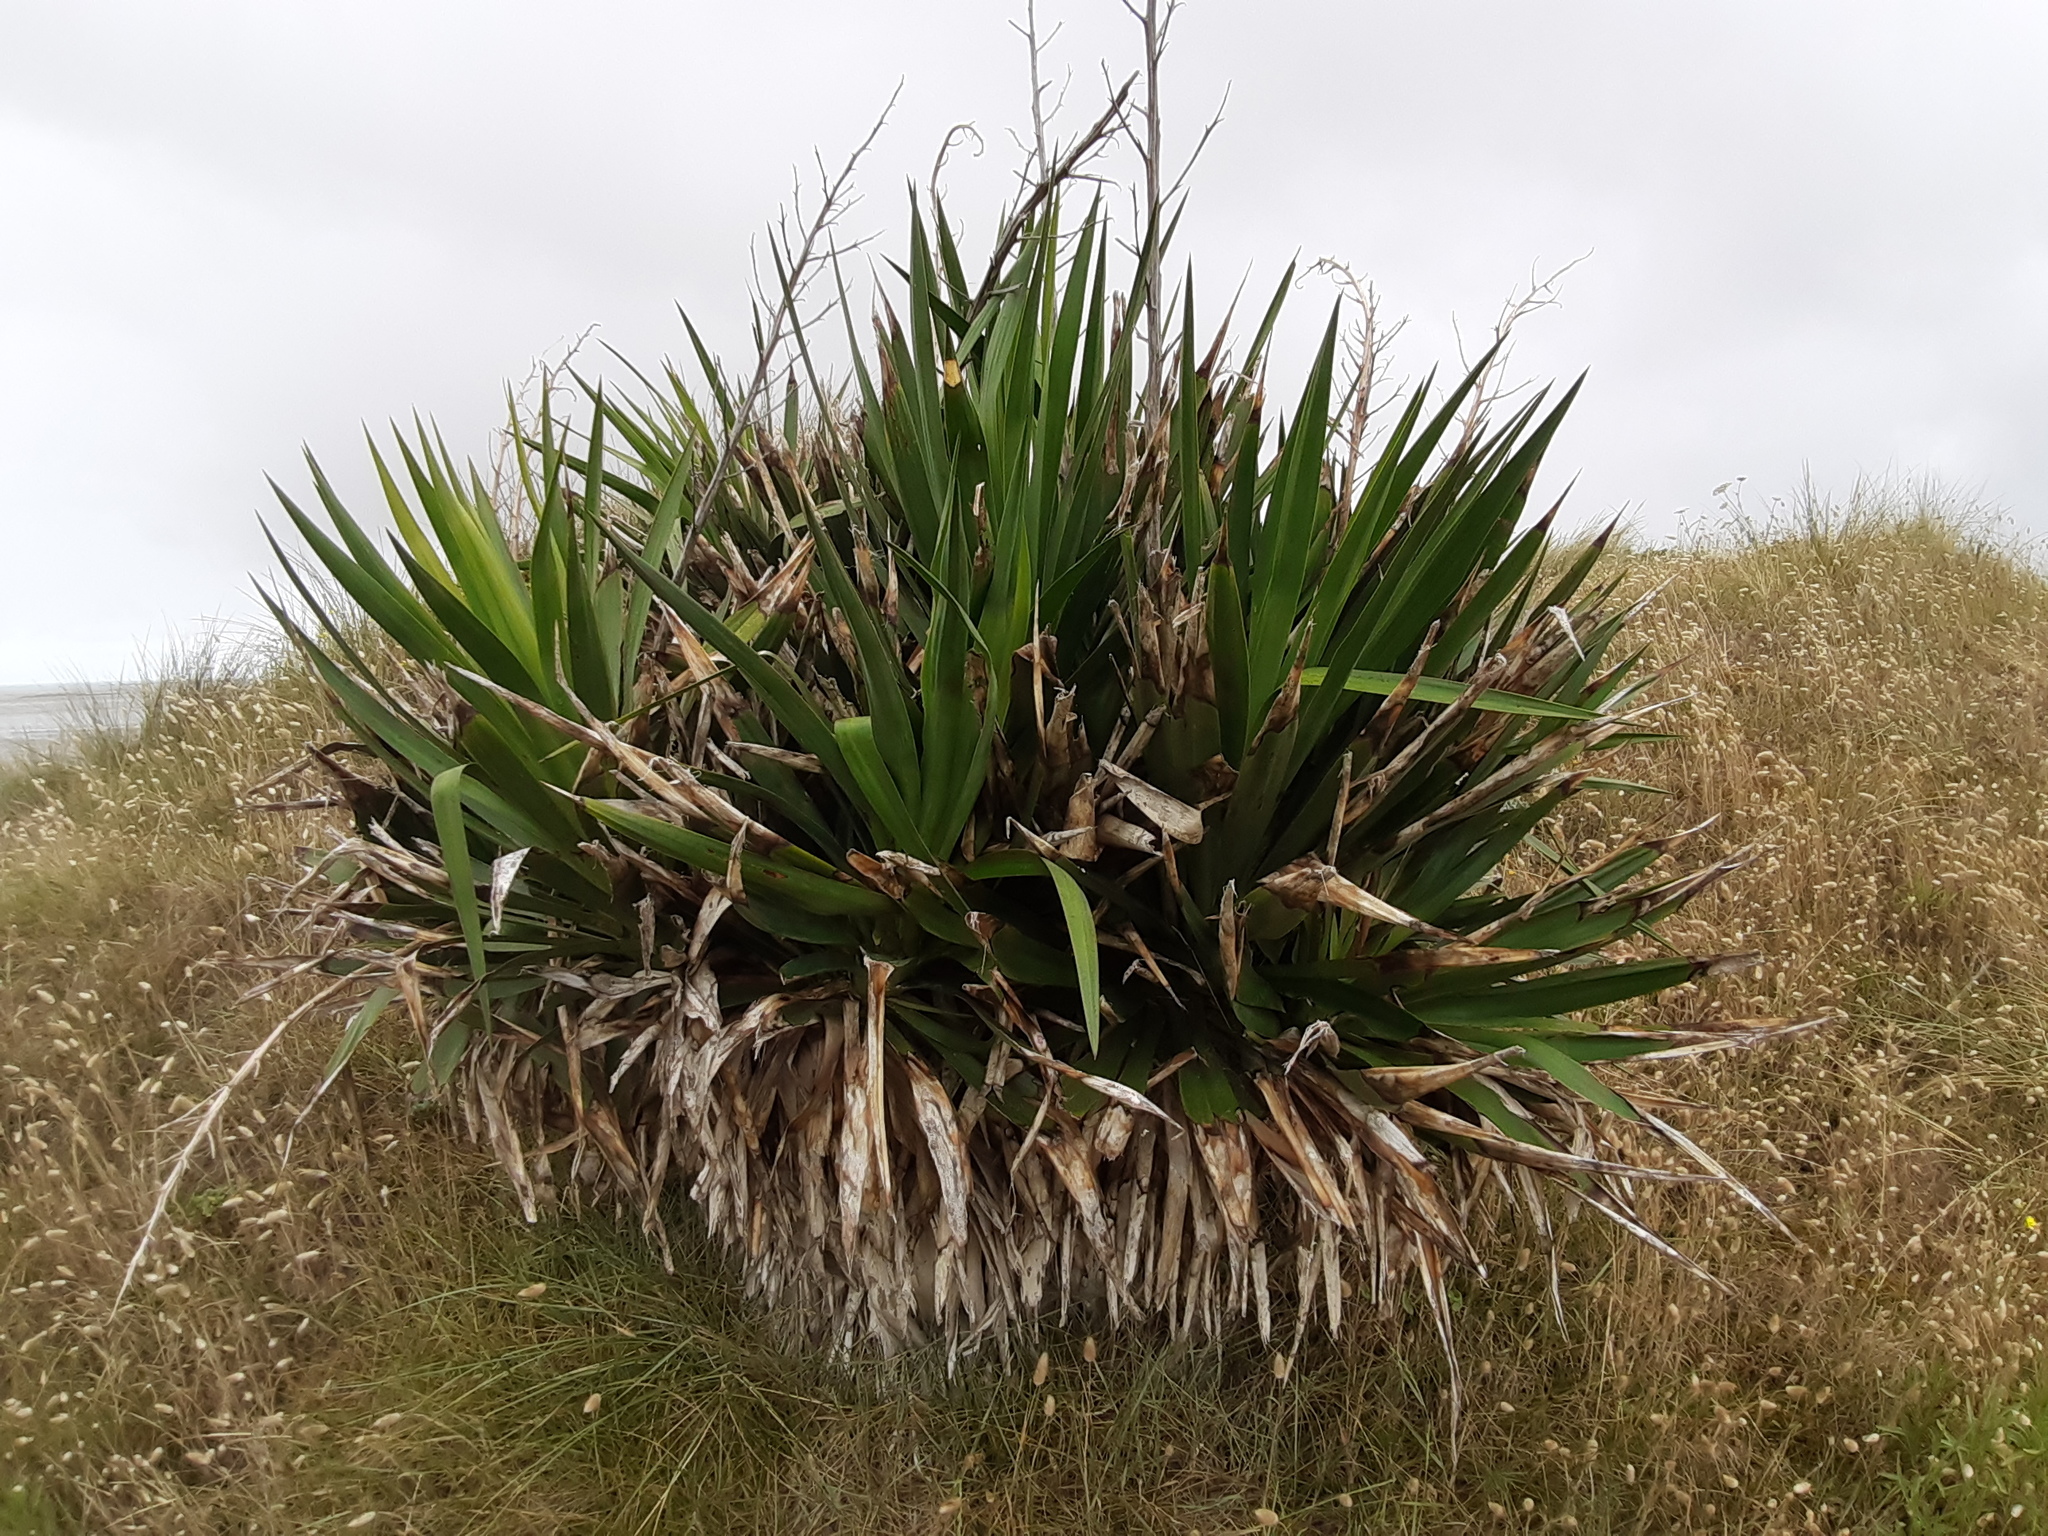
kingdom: Plantae
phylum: Tracheophyta
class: Liliopsida
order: Asparagales
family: Asparagaceae
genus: Yucca
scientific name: Yucca gloriosa
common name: Spanish-dagger
